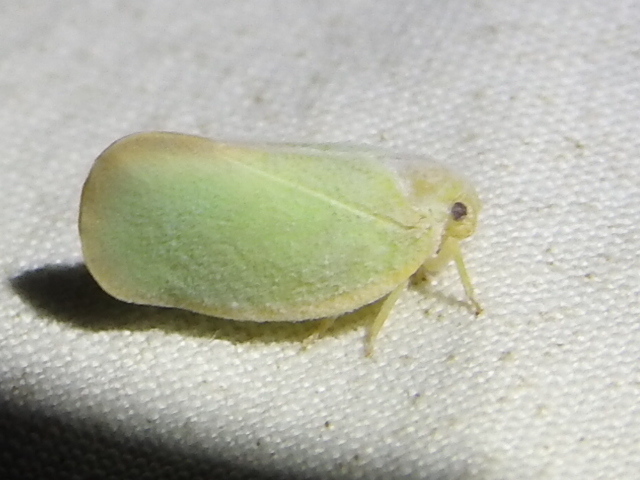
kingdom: Animalia
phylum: Arthropoda
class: Insecta
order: Hemiptera
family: Flatidae
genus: Ormenoides
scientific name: Ormenoides venusta
